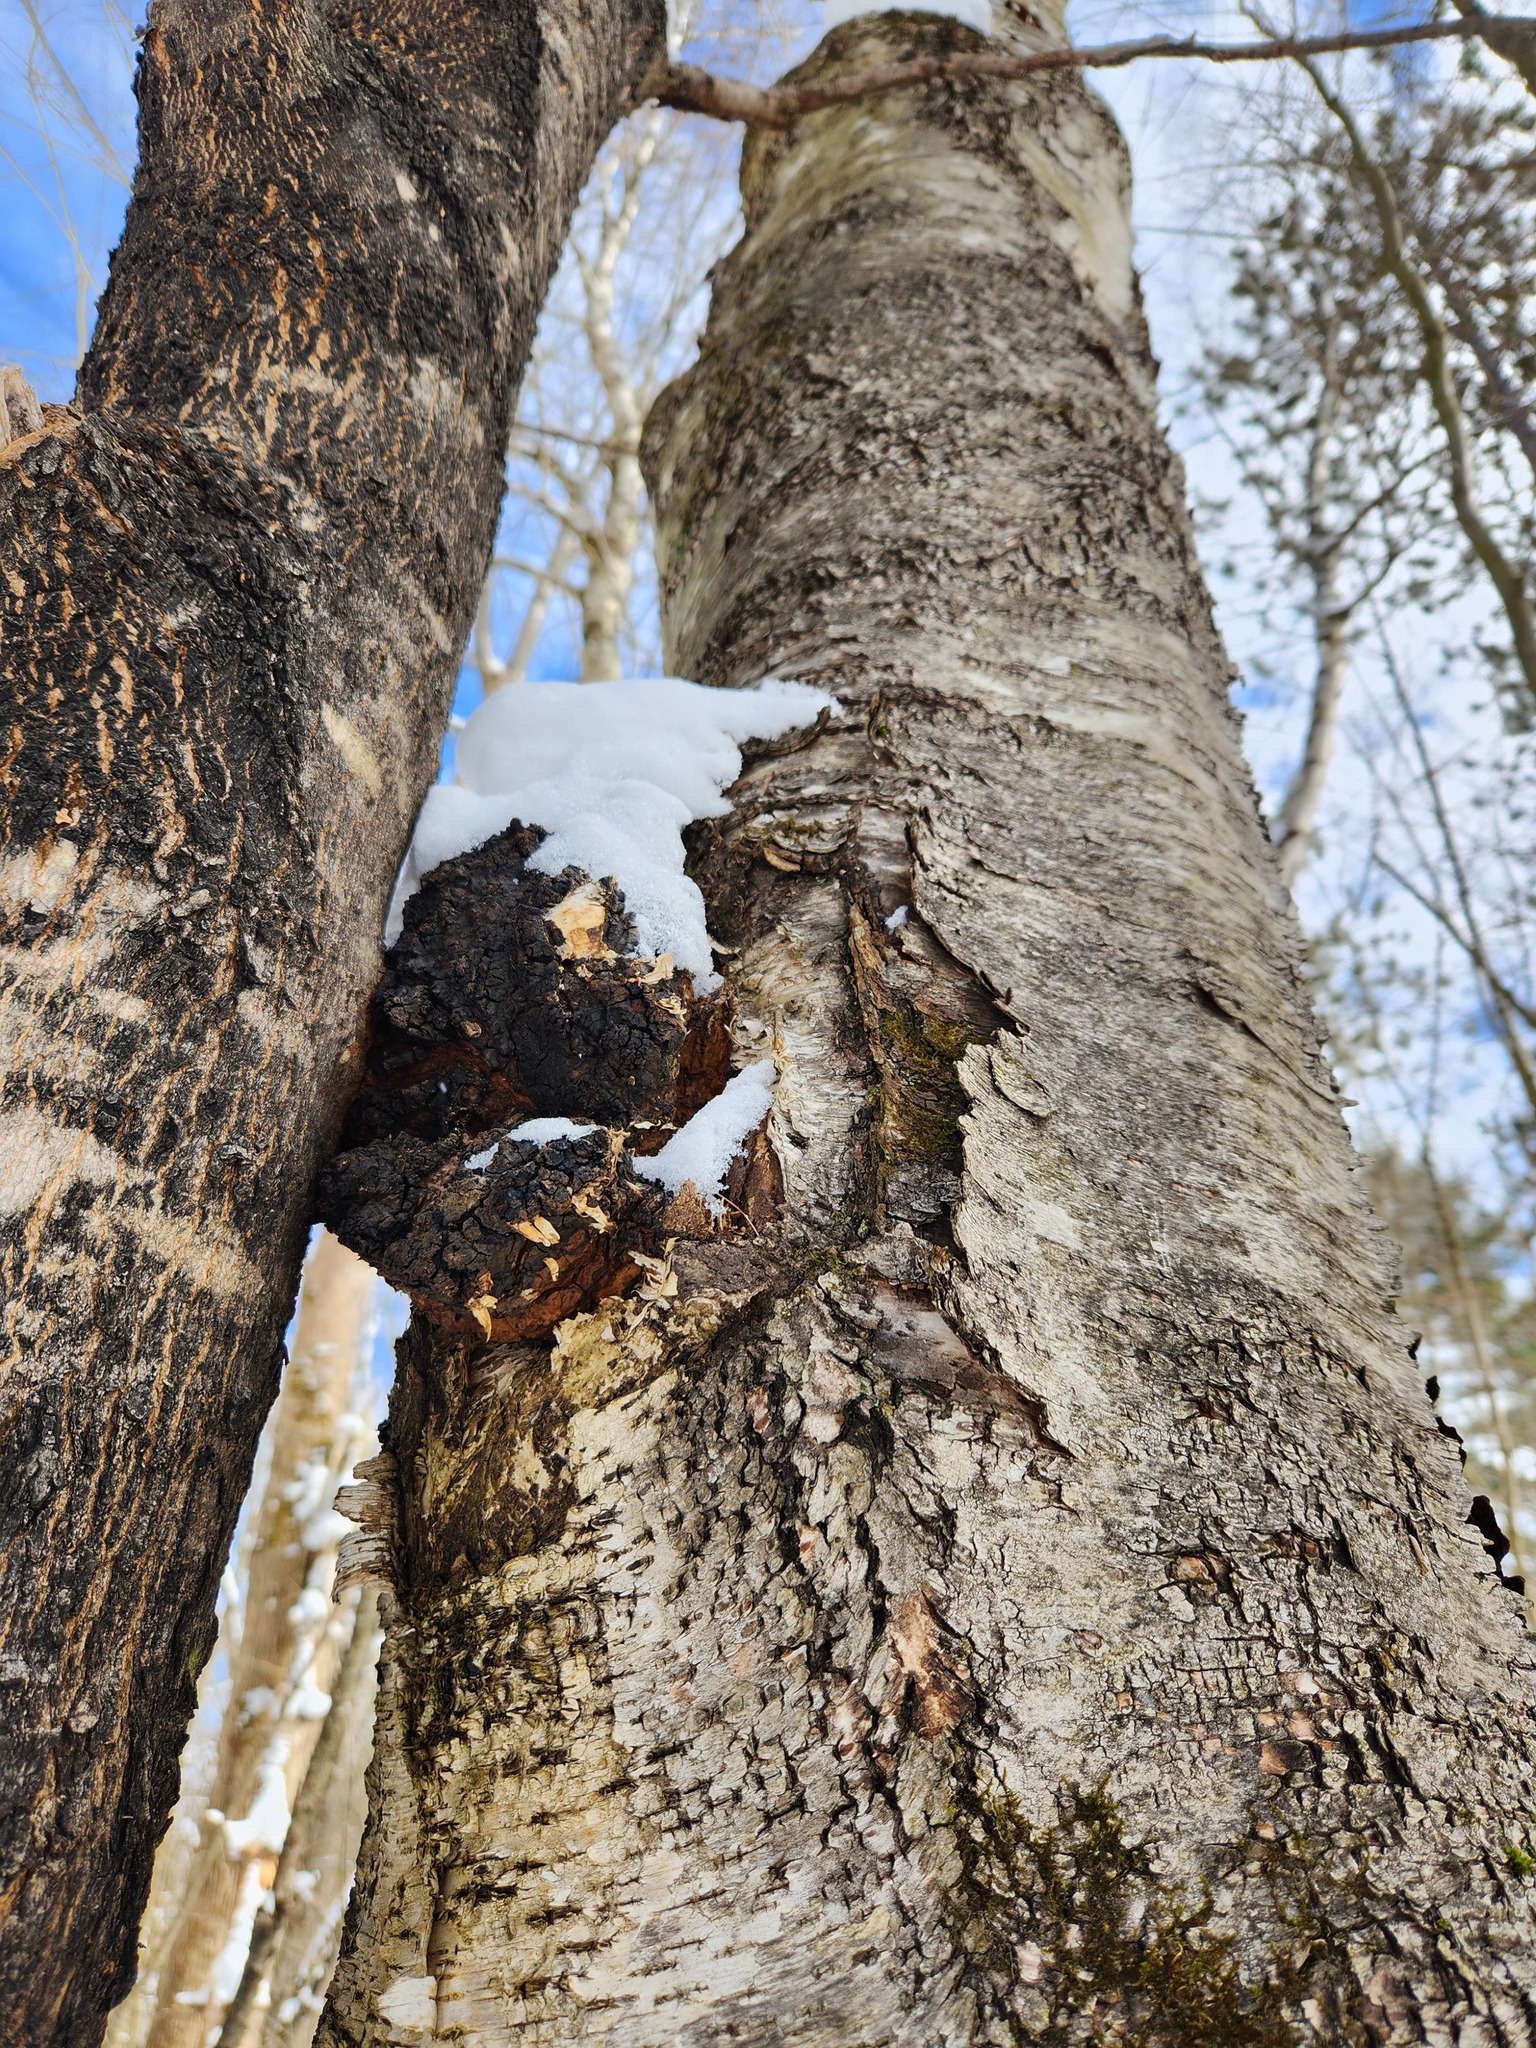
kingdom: Fungi
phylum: Basidiomycota
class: Agaricomycetes
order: Hymenochaetales
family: Hymenochaetaceae
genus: Inonotus
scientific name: Inonotus obliquus
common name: Chaga
